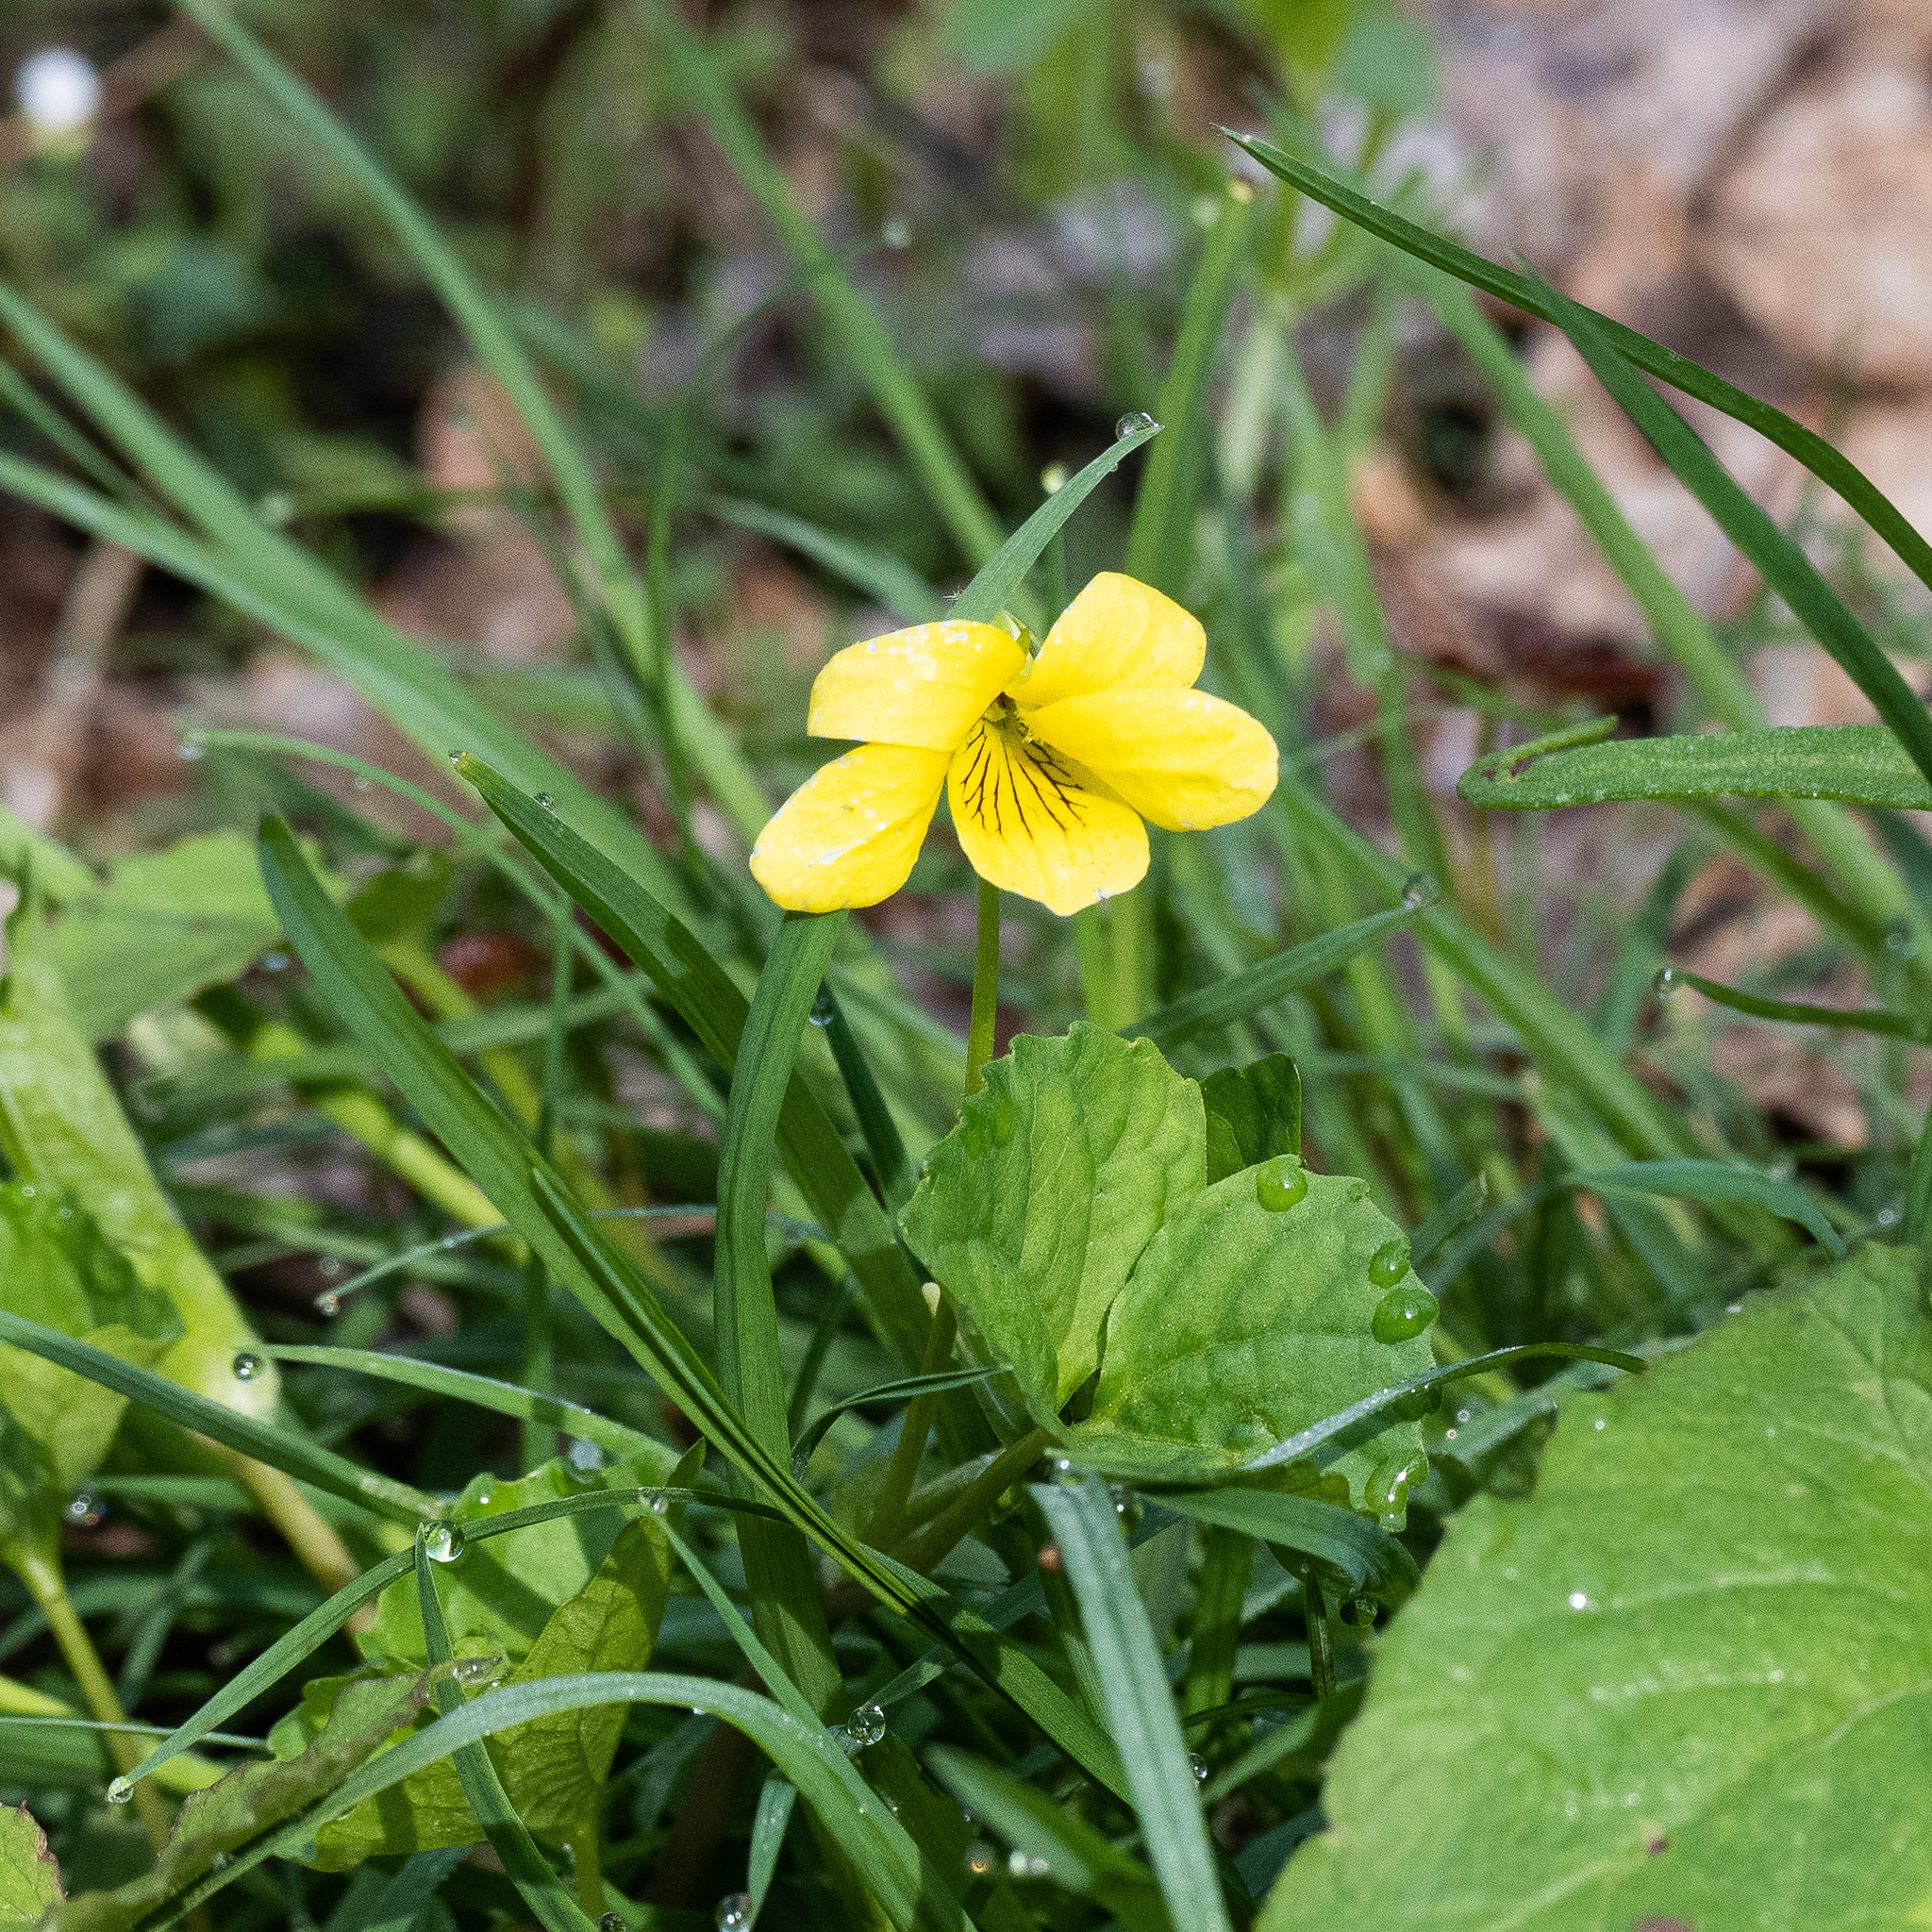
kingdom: Plantae
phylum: Tracheophyta
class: Magnoliopsida
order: Malpighiales
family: Violaceae
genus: Viola
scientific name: Viola eriocarpa
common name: Smooth yellow violet
